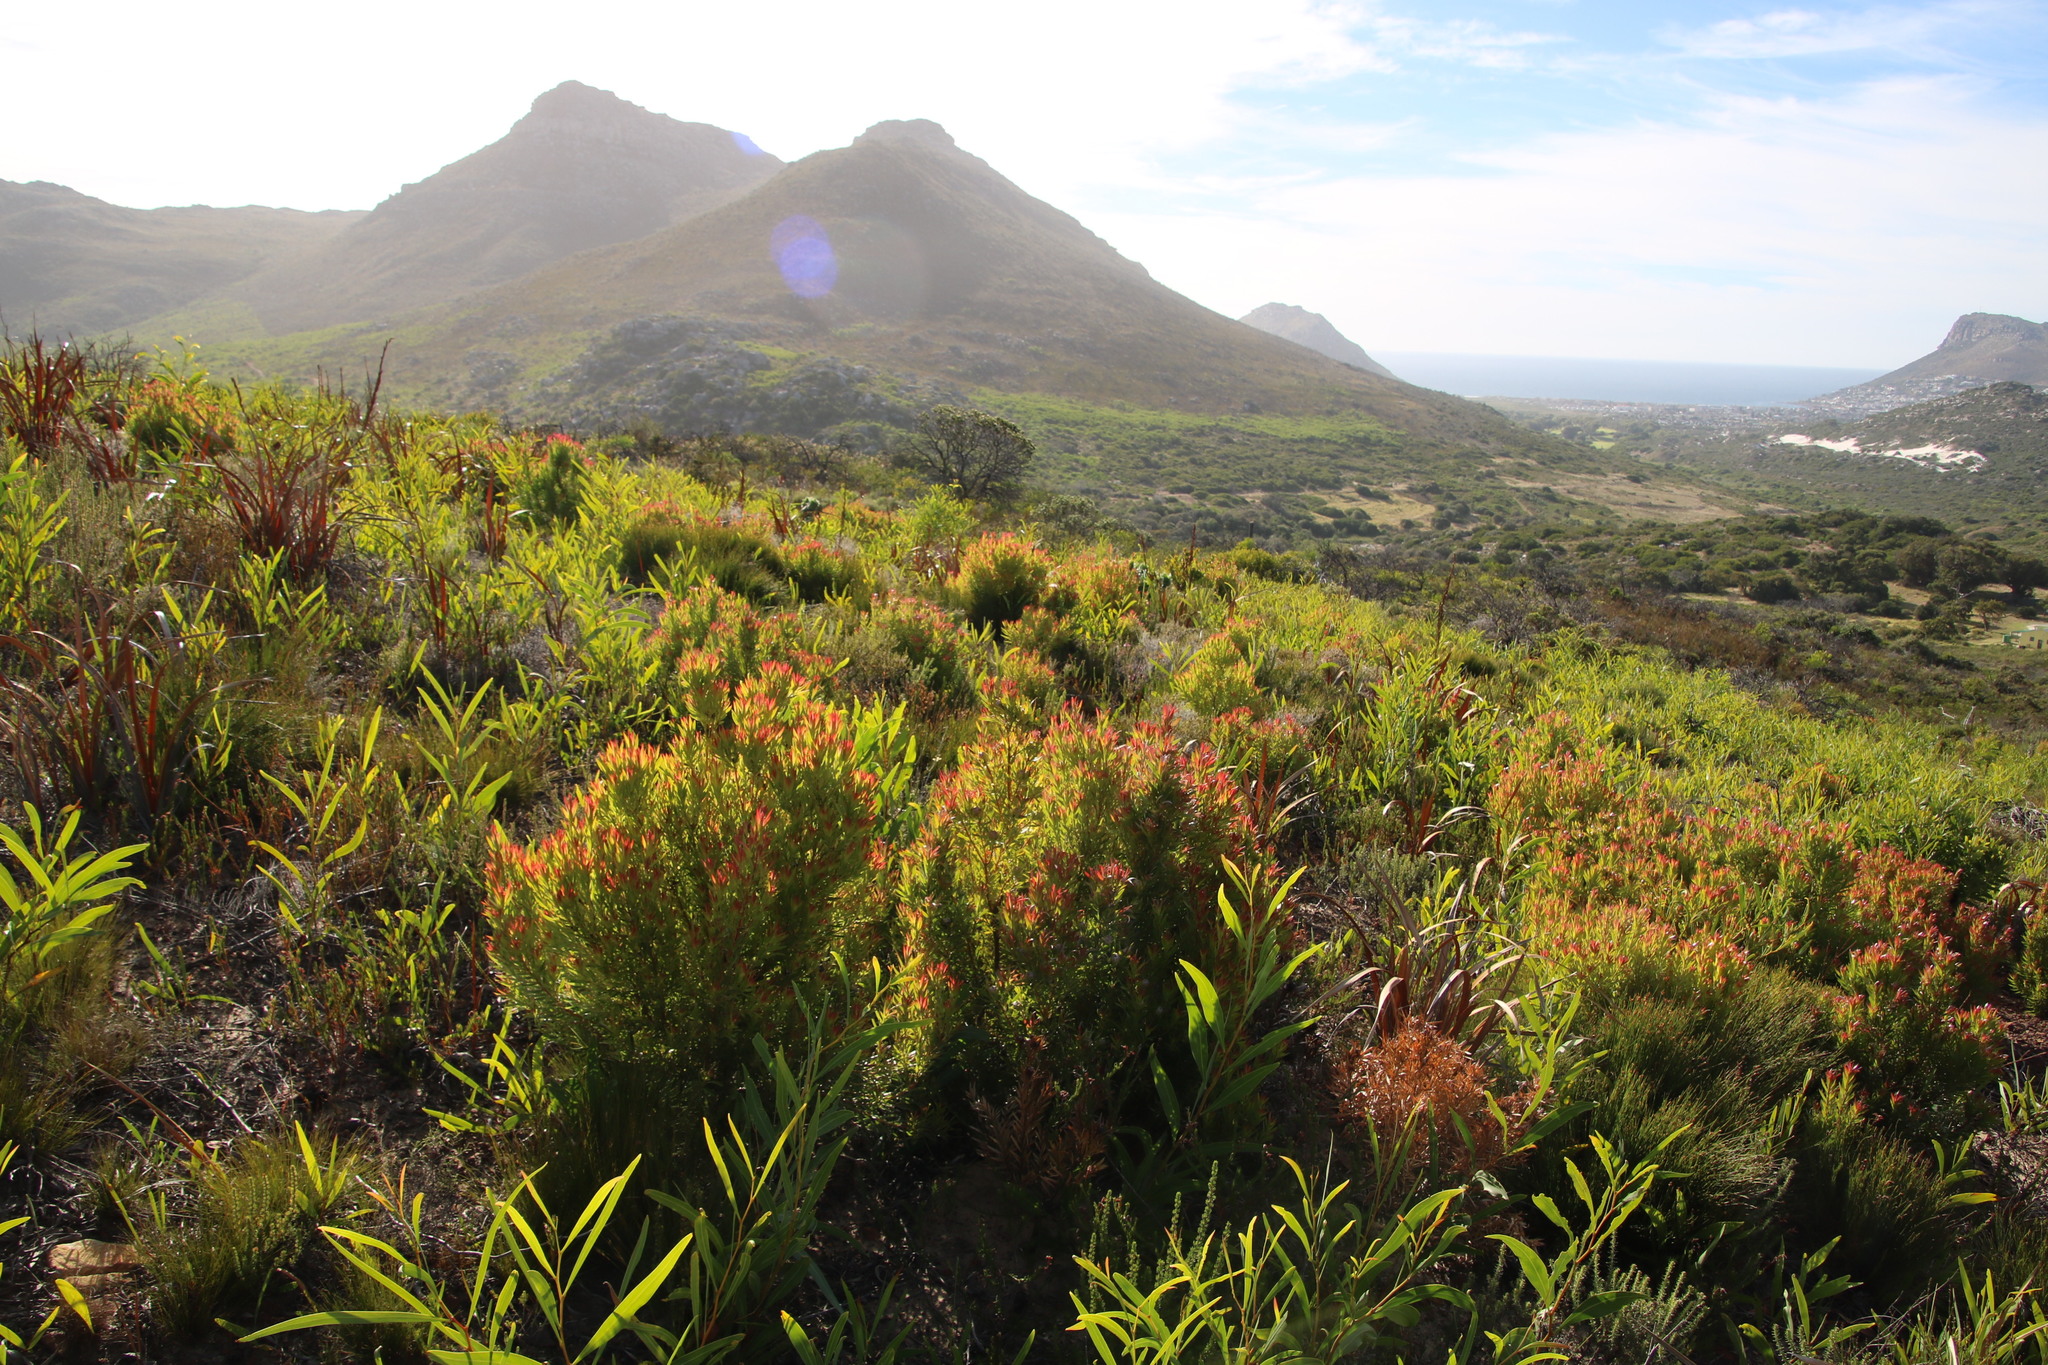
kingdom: Plantae
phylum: Tracheophyta
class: Magnoliopsida
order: Proteales
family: Proteaceae
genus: Leucadendron
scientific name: Leucadendron xanthoconus
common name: Sickle-leaf conebush
